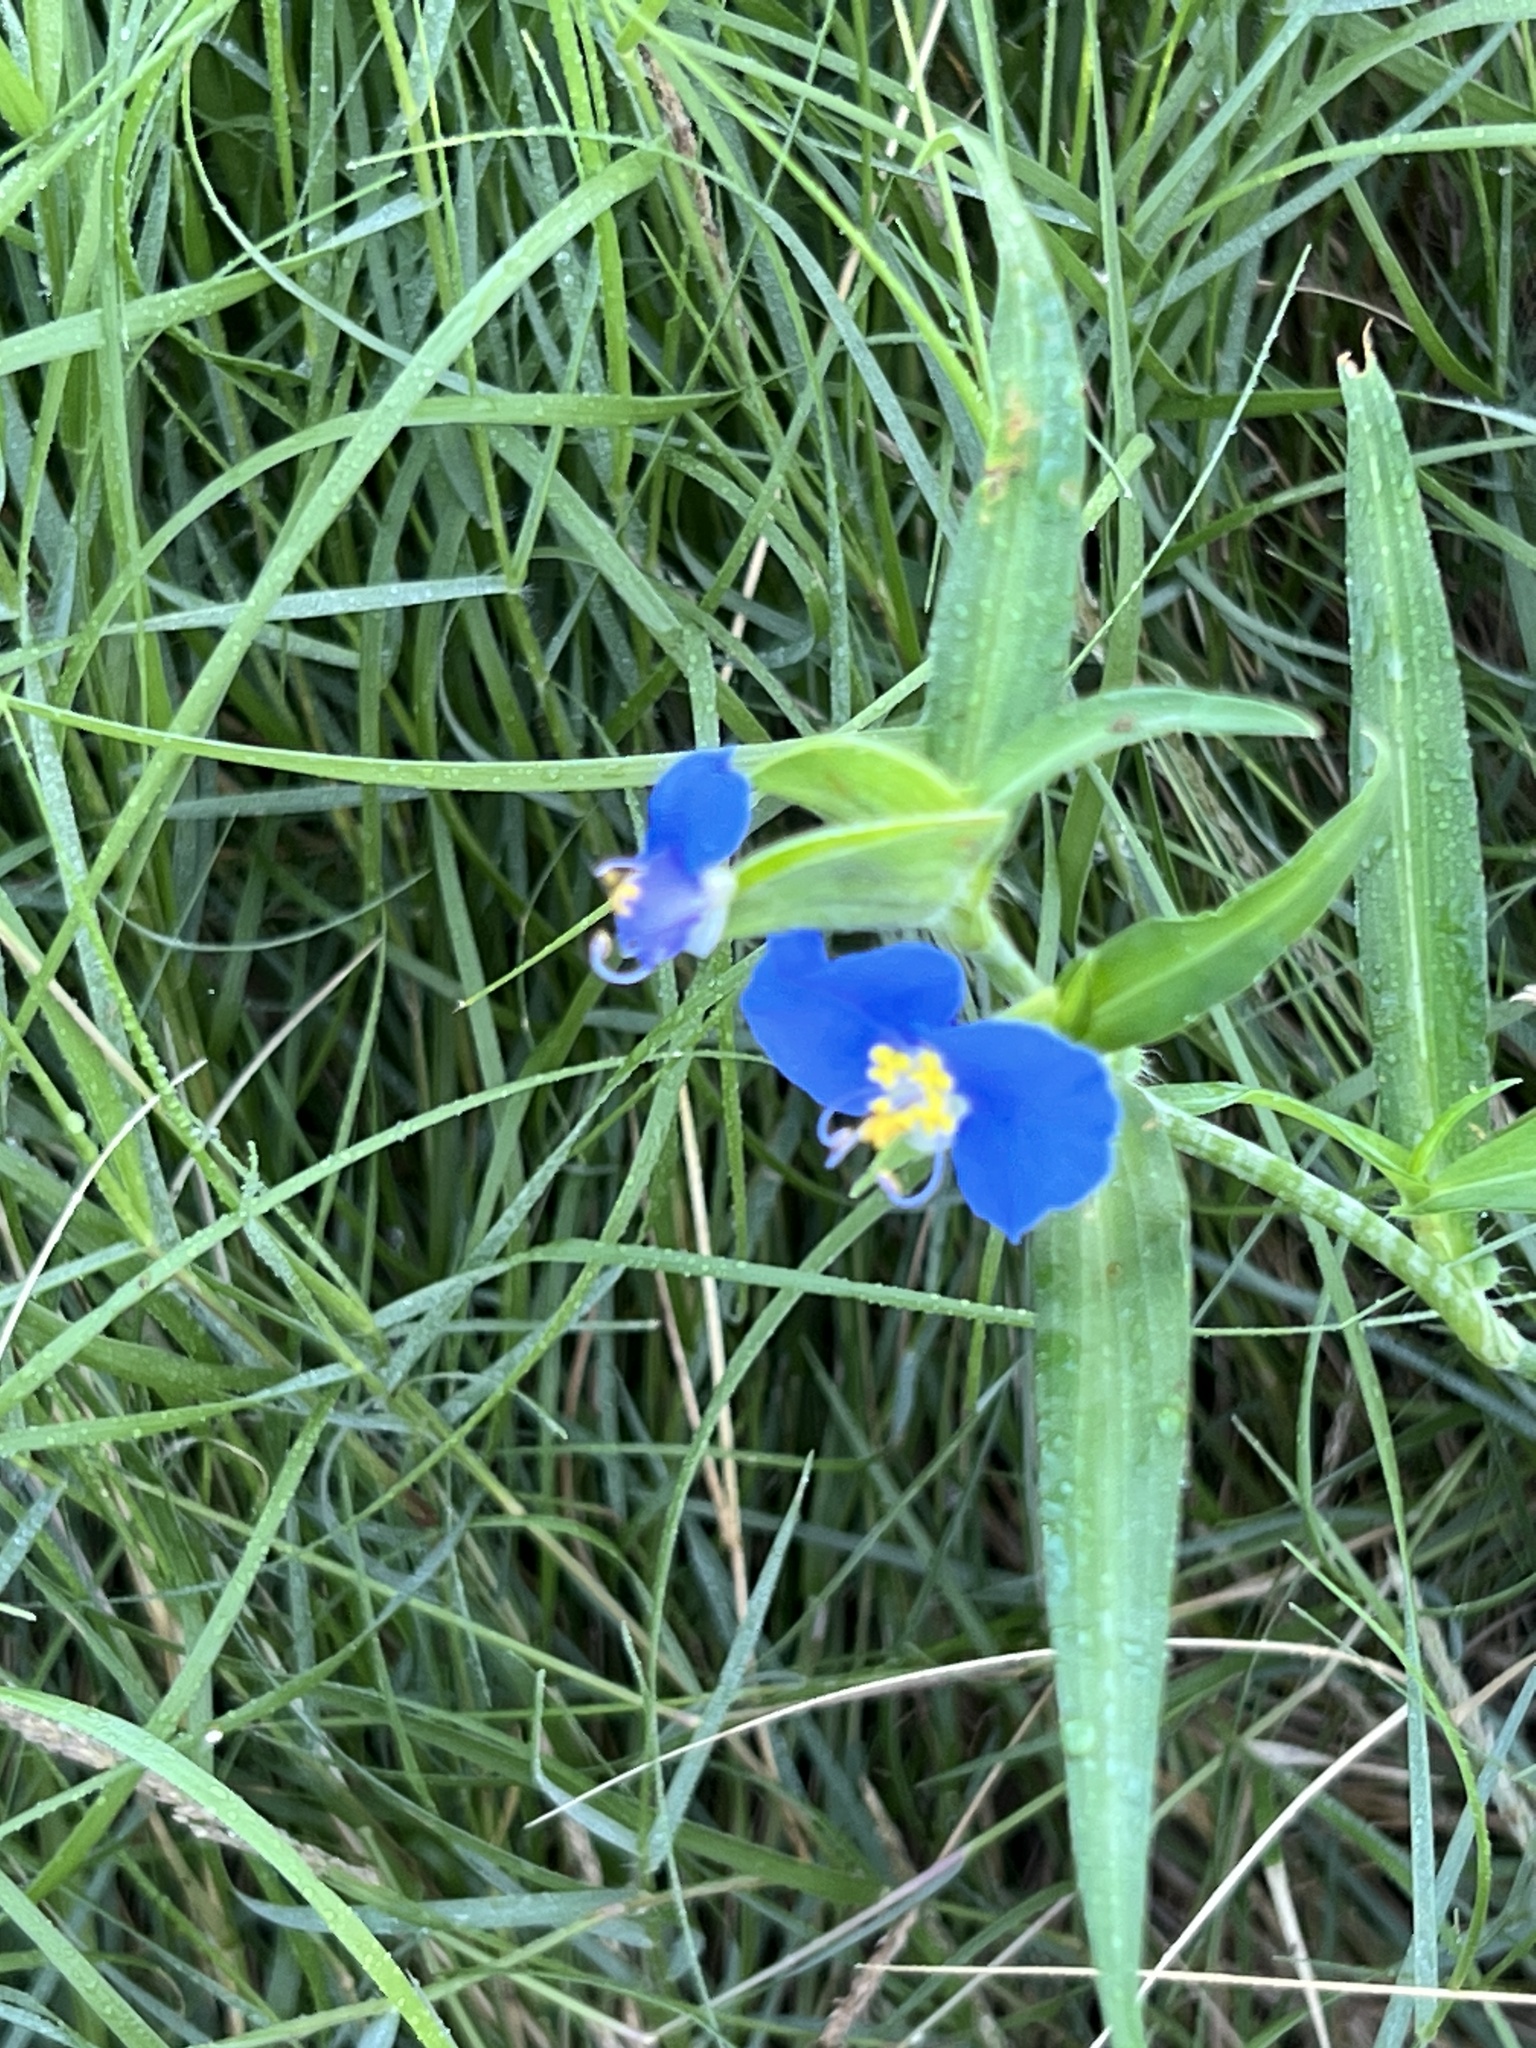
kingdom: Plantae
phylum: Tracheophyta
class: Liliopsida
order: Commelinales
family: Commelinaceae
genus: Commelina
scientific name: Commelina erecta
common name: Blousel blommetjie
